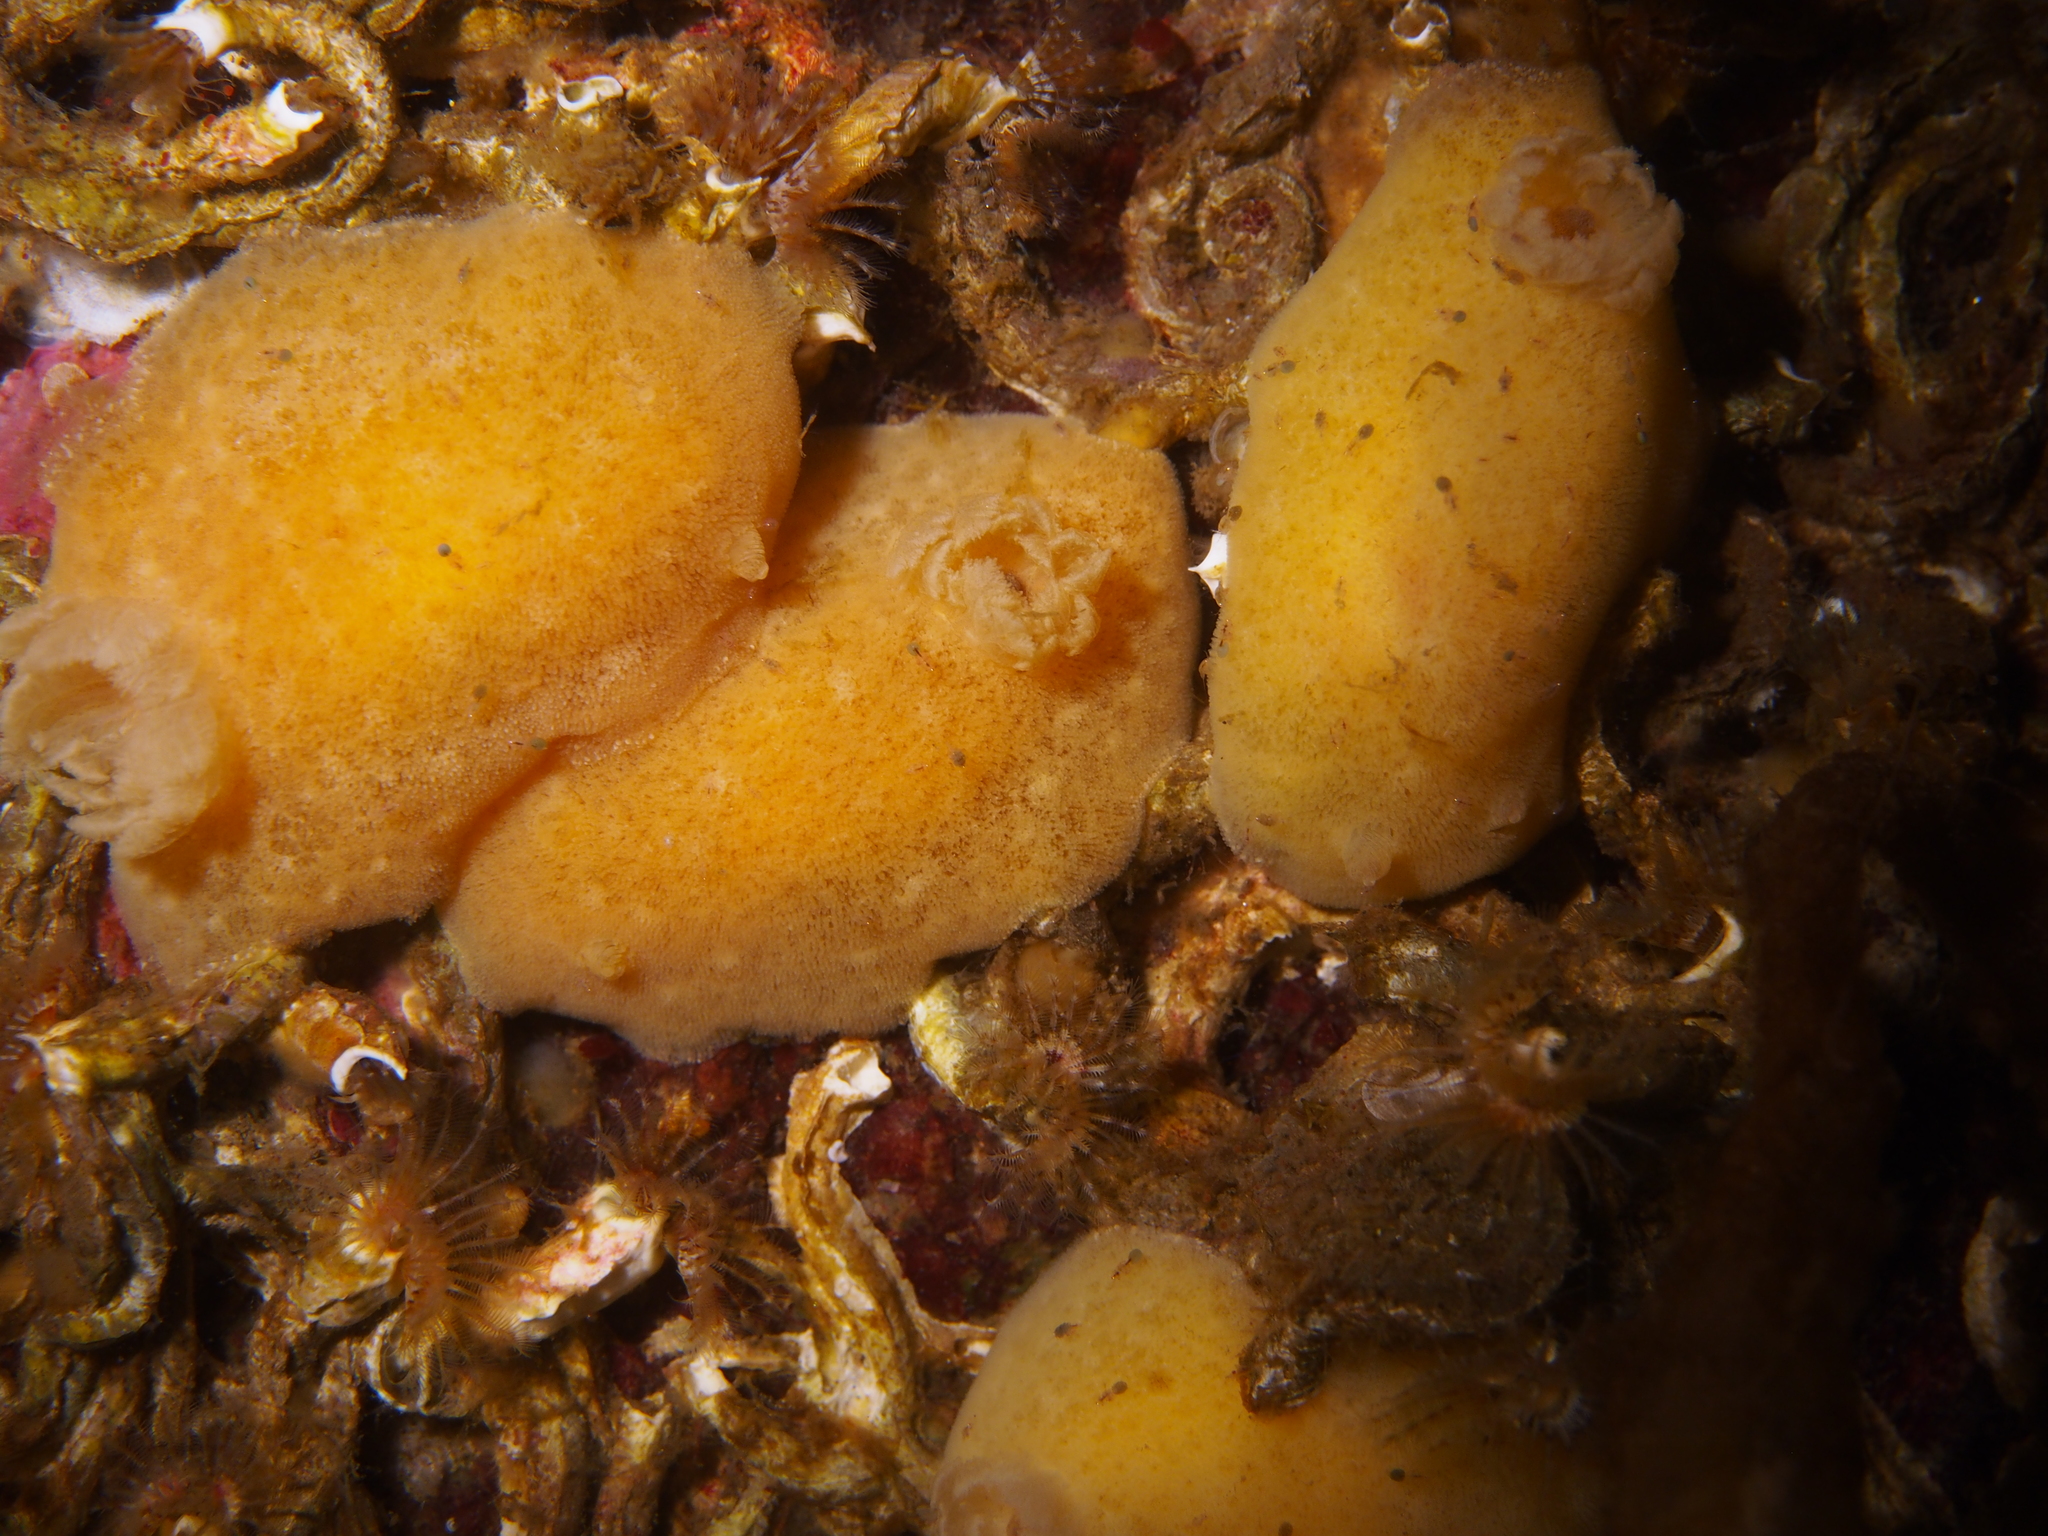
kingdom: Animalia
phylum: Mollusca
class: Gastropoda
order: Nudibranchia
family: Discodorididae
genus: Jorunna
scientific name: Jorunna tomentosa
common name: Grey sea slug
